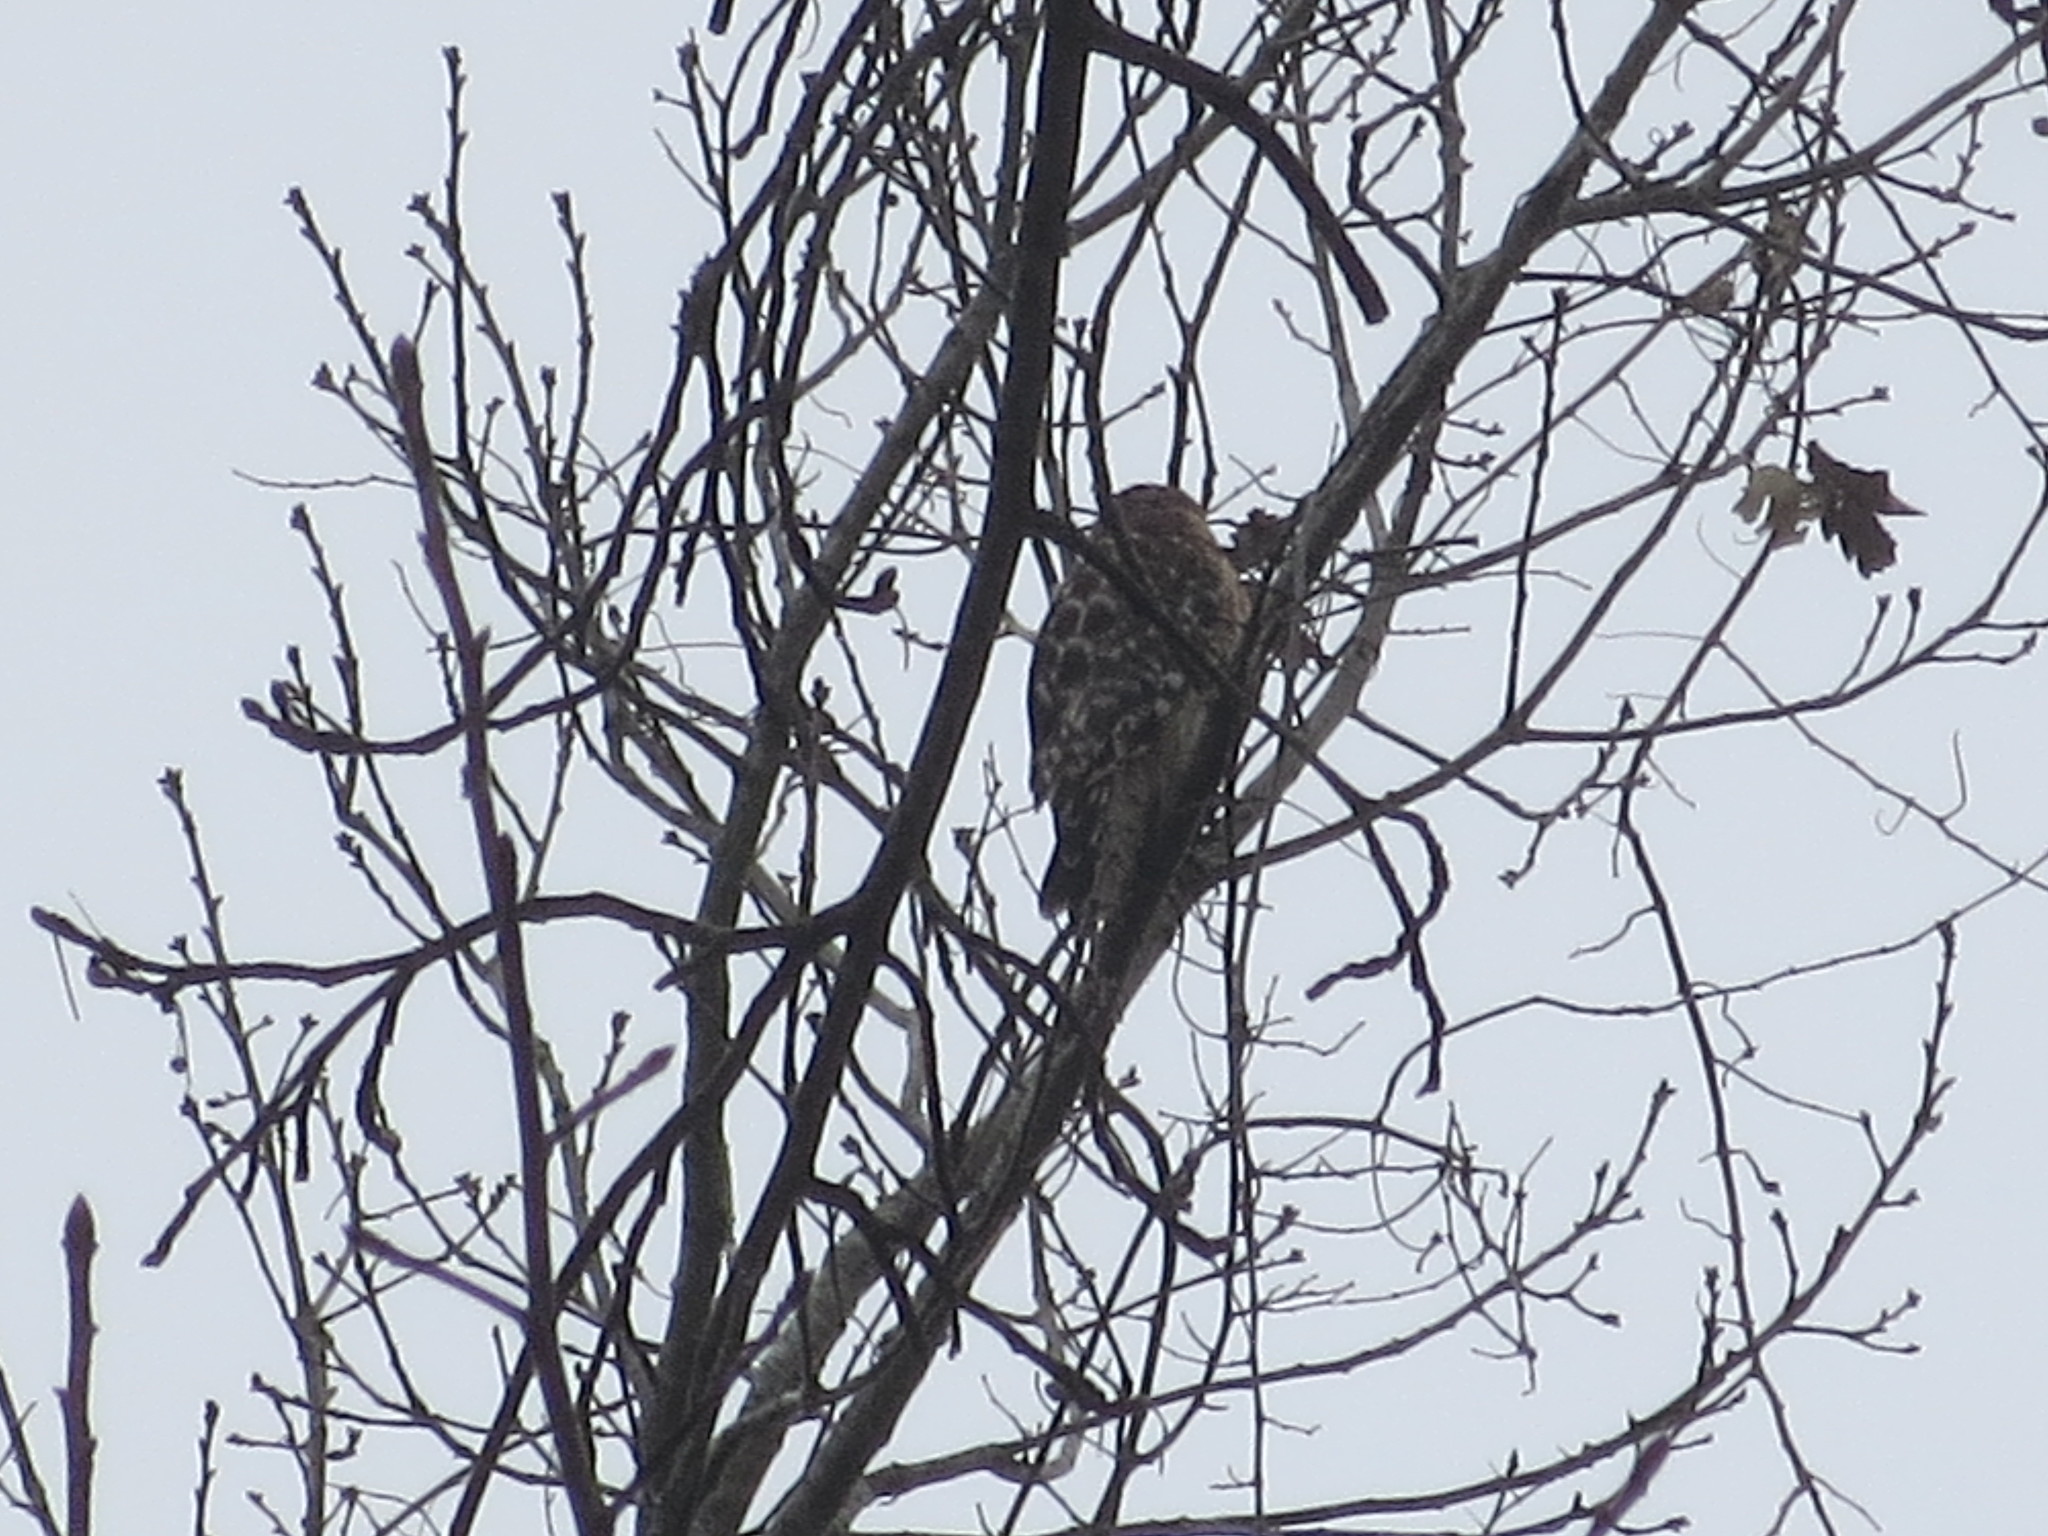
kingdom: Animalia
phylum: Chordata
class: Aves
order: Accipitriformes
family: Accipitridae
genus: Buteo
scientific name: Buteo lineatus
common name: Red-shouldered hawk
